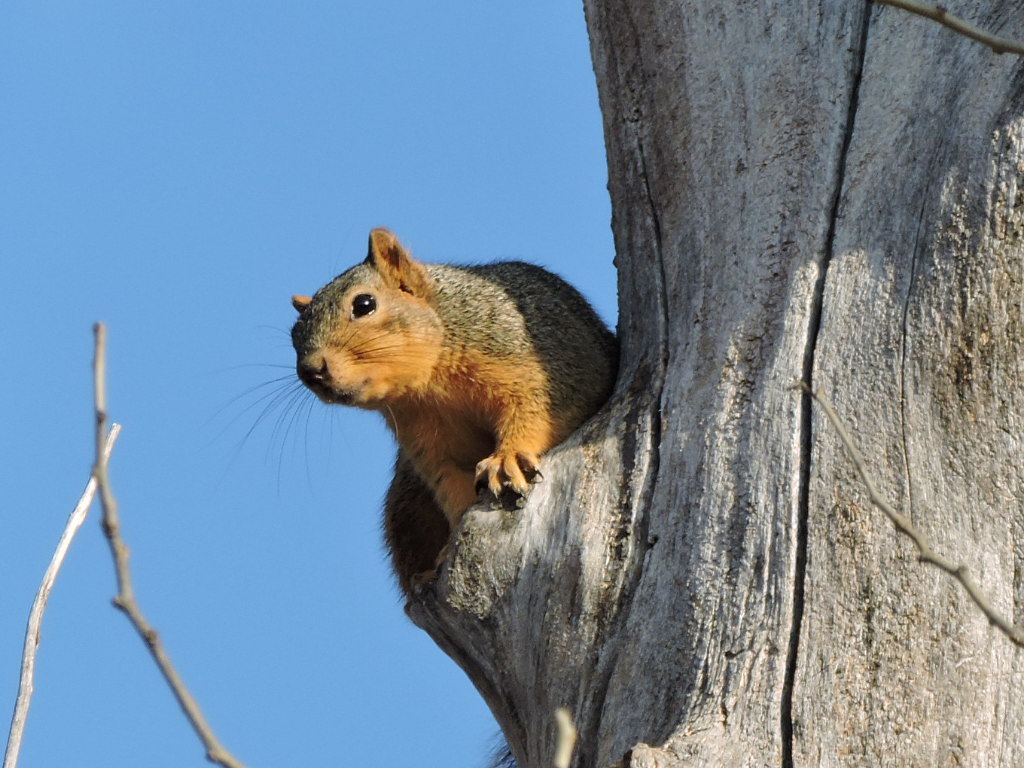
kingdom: Animalia
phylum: Chordata
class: Mammalia
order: Rodentia
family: Sciuridae
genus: Sciurus
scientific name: Sciurus niger
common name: Fox squirrel
